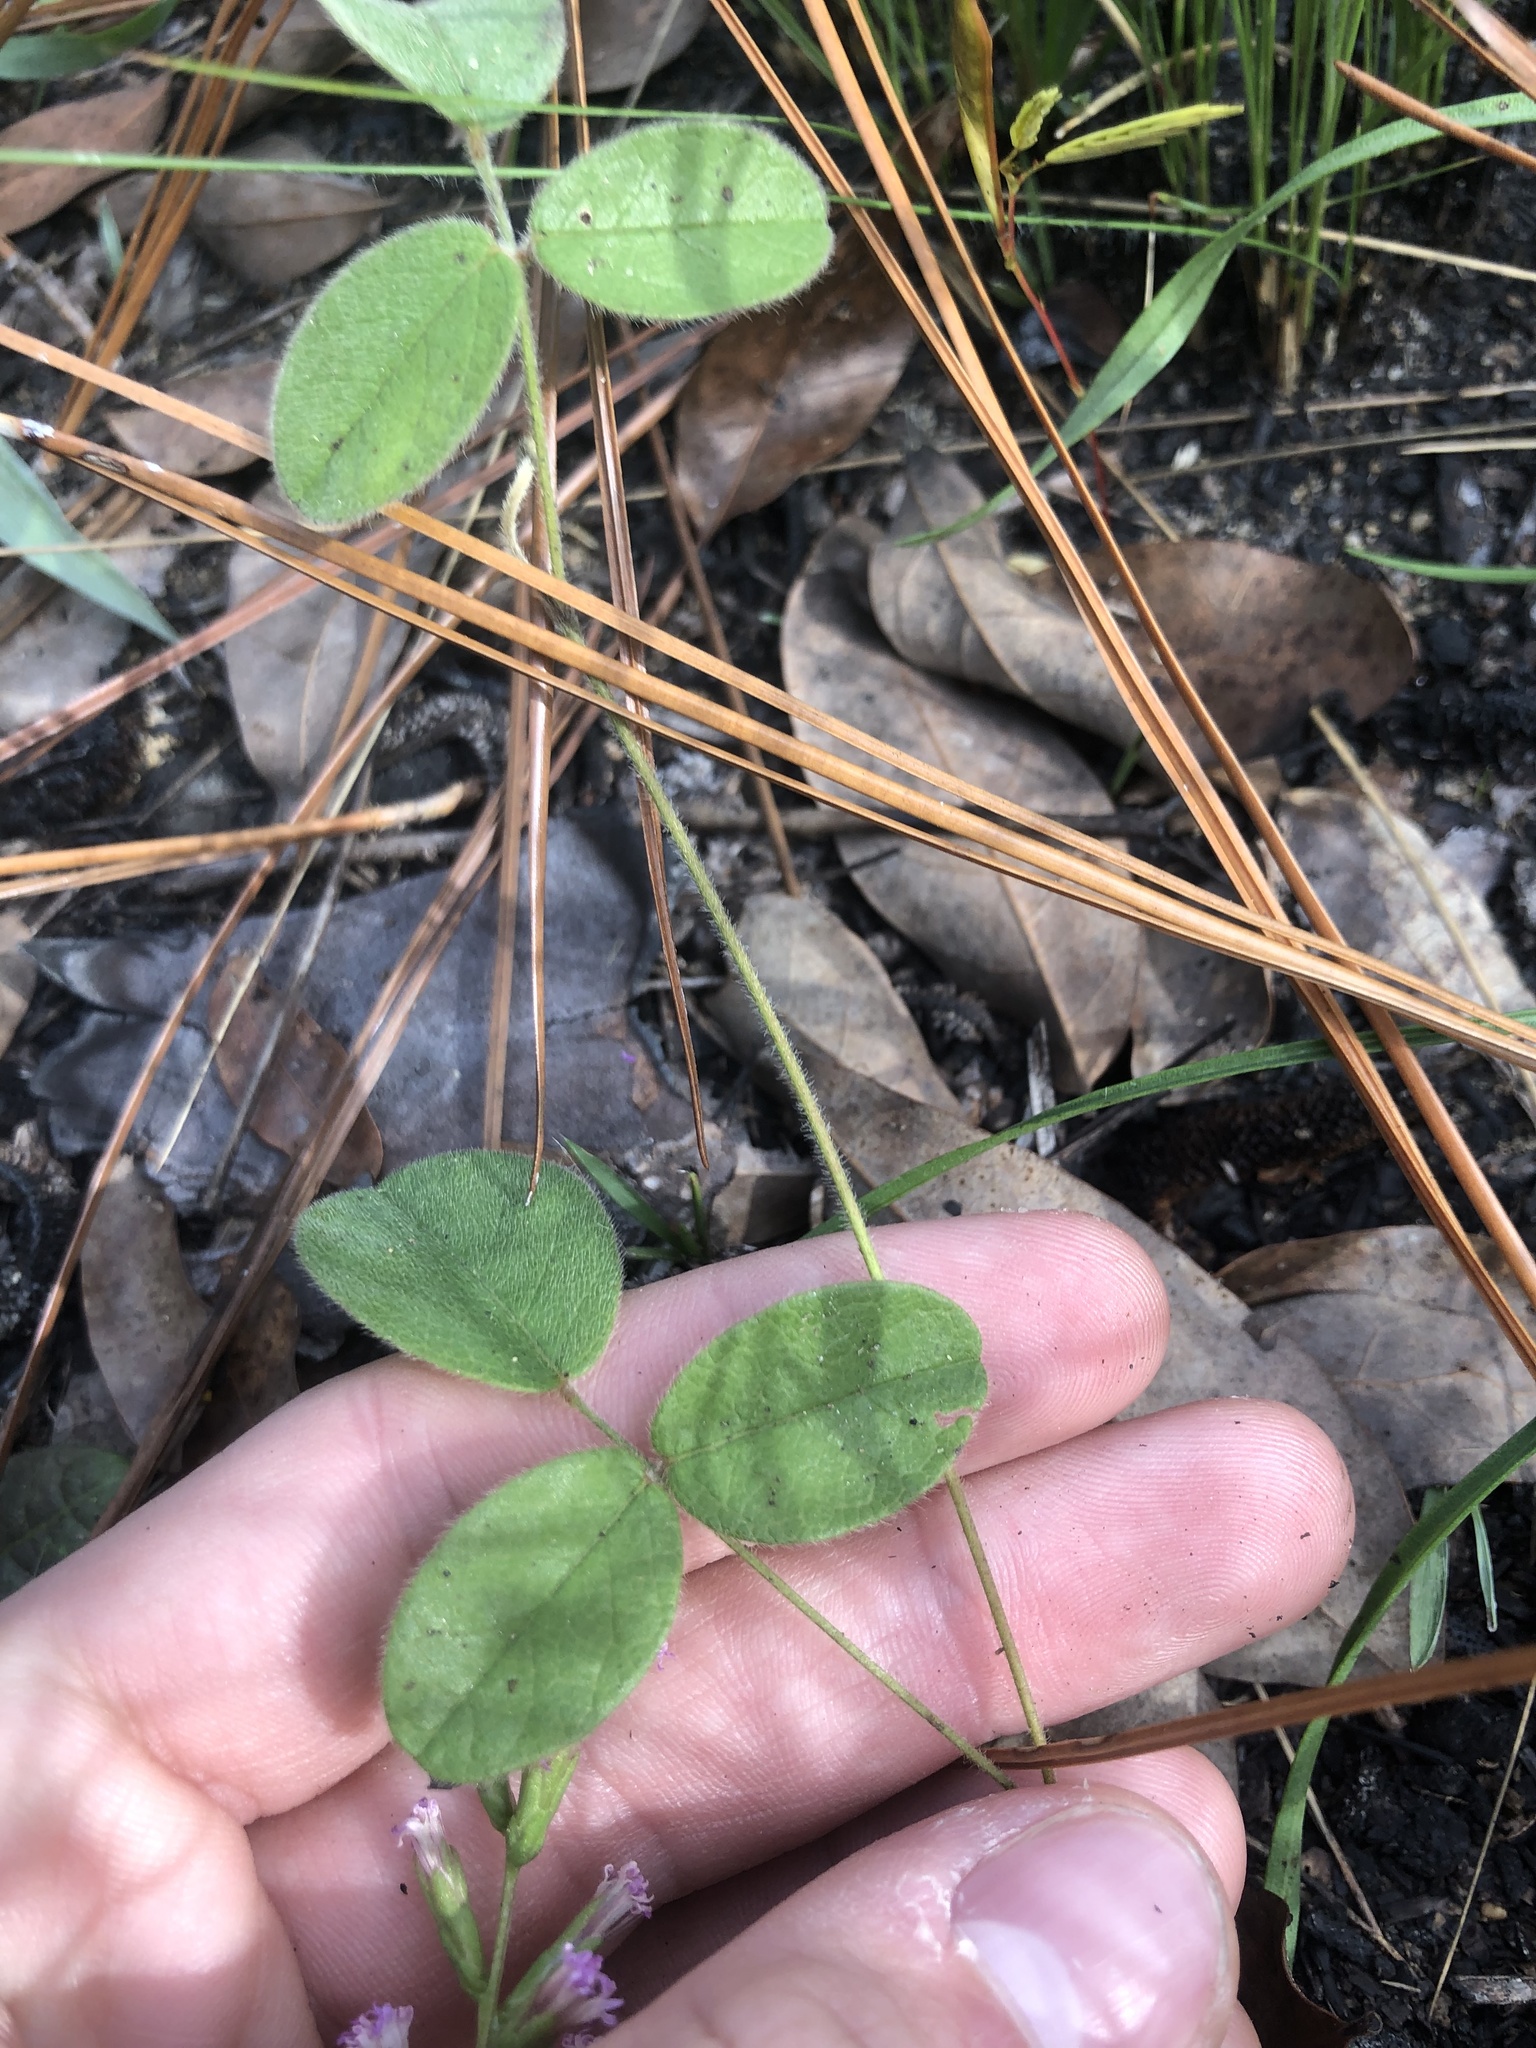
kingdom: Plantae
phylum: Tracheophyta
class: Magnoliopsida
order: Fabales
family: Fabaceae
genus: Galactia
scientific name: Galactia mollis
